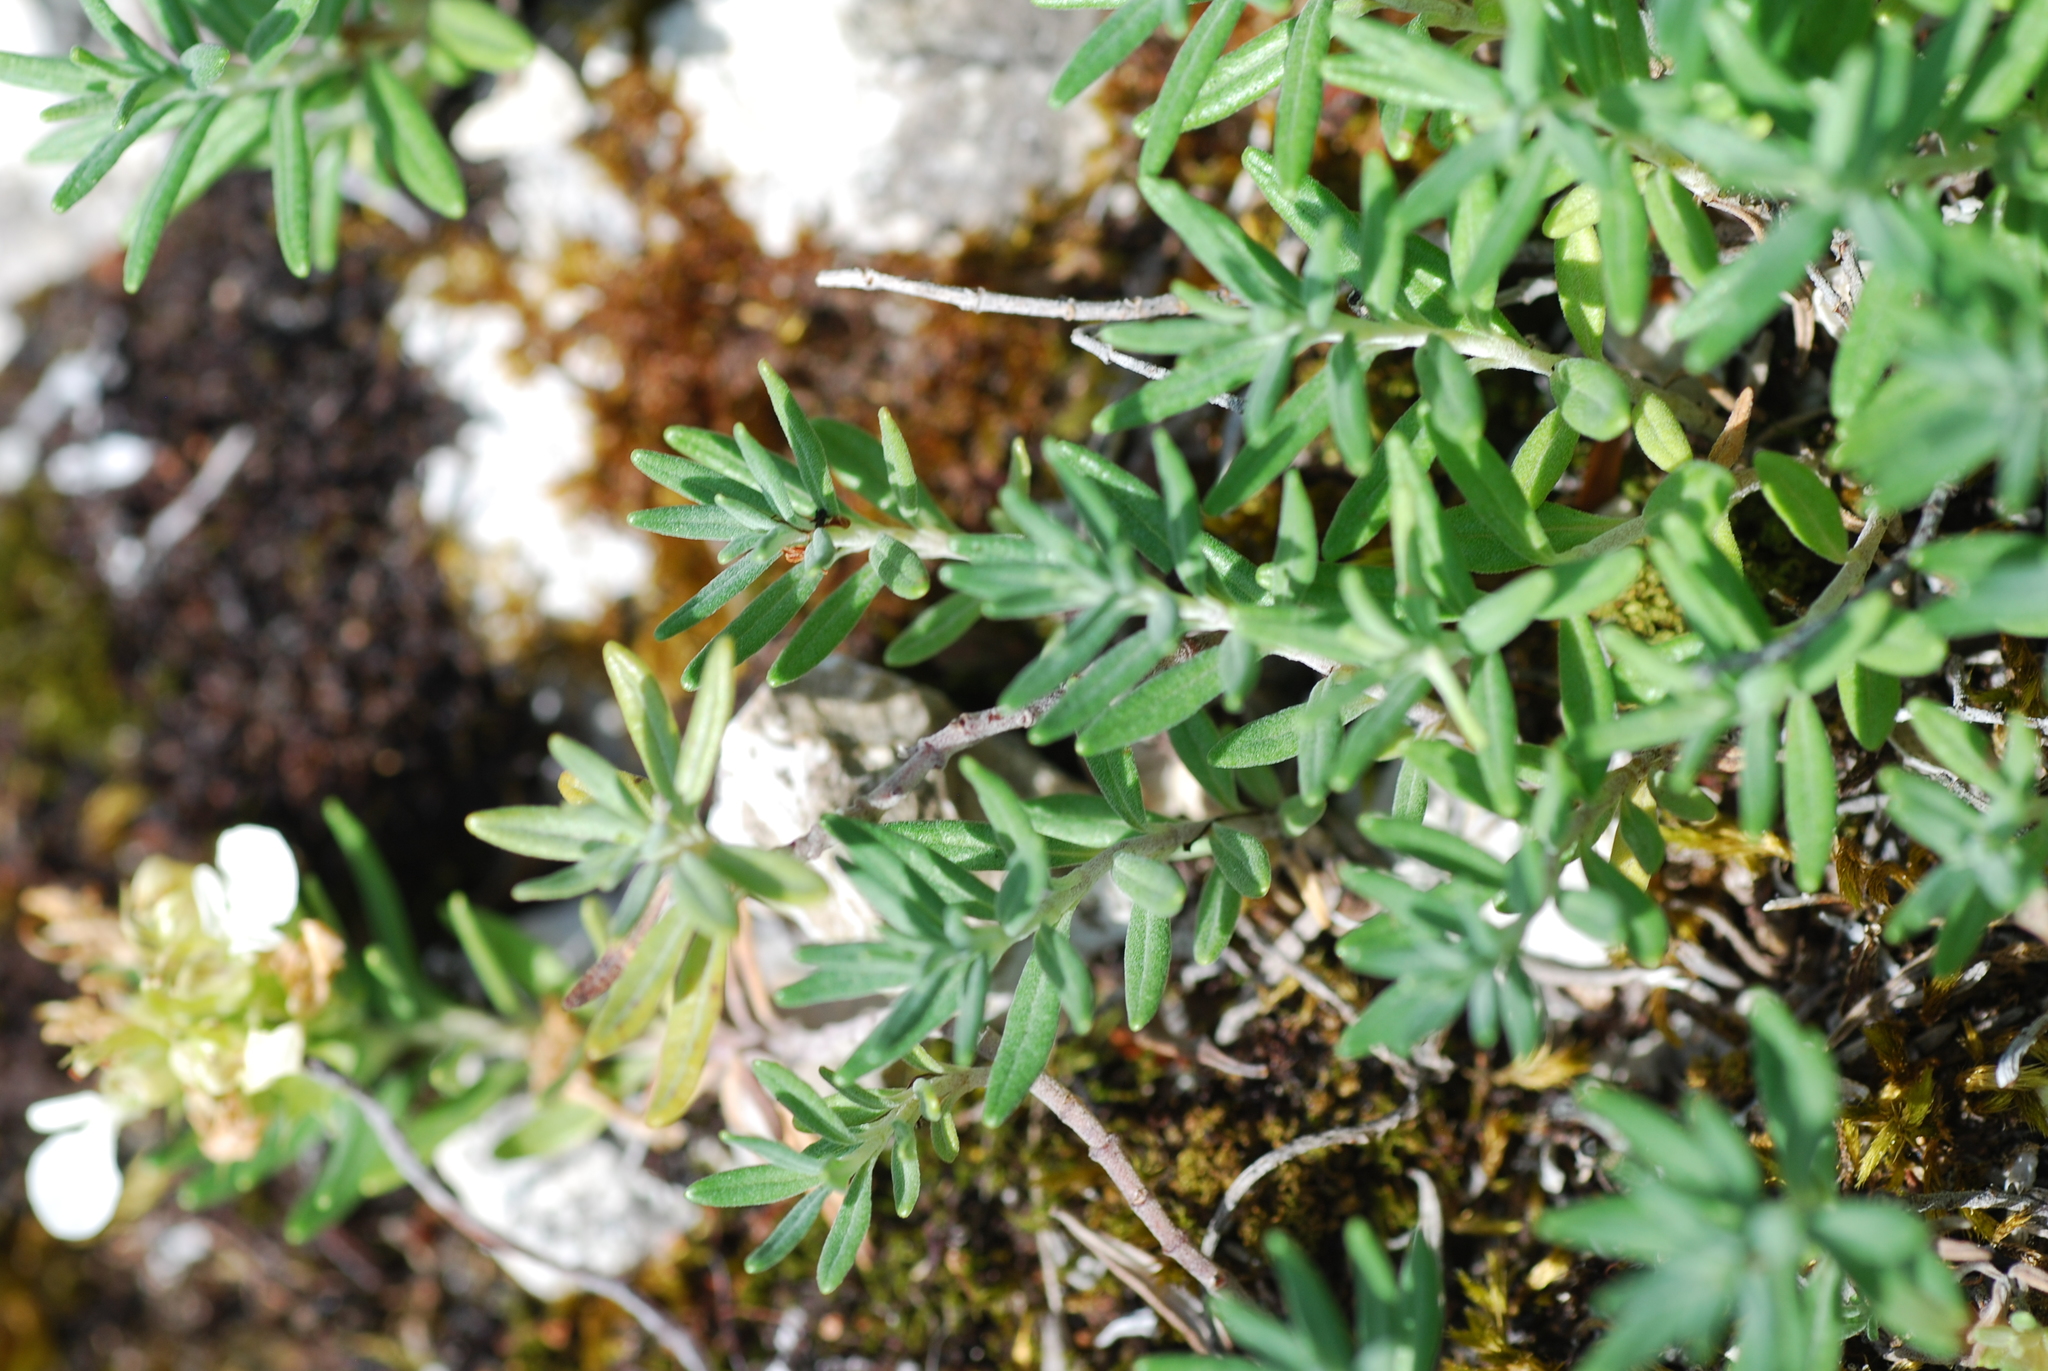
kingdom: Plantae
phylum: Tracheophyta
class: Magnoliopsida
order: Lamiales
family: Lamiaceae
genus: Teucrium
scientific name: Teucrium montanum
